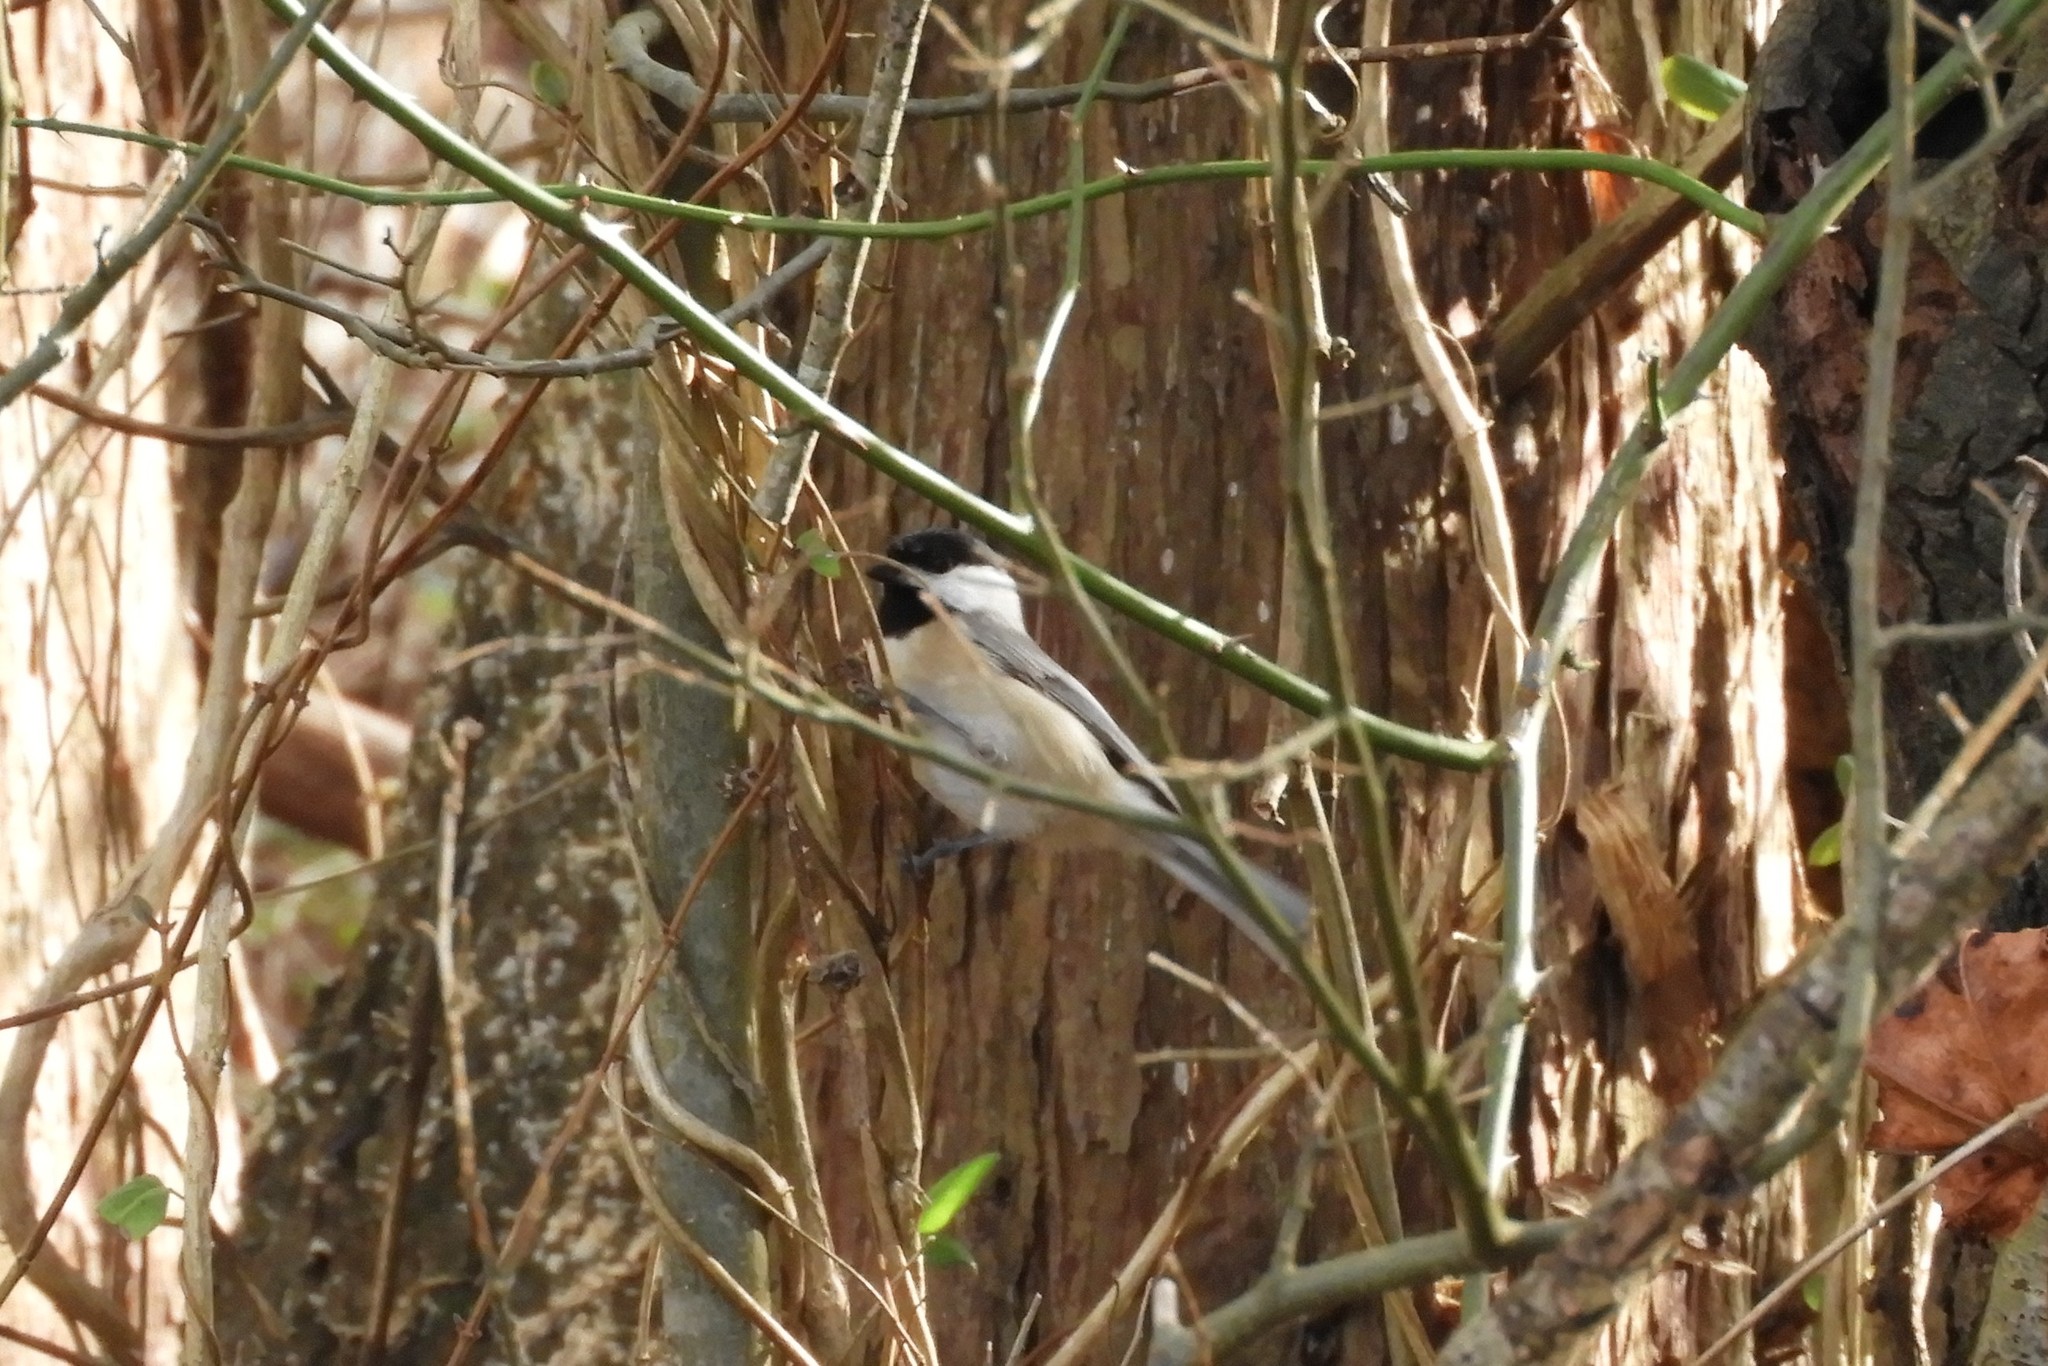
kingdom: Animalia
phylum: Chordata
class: Aves
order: Passeriformes
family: Paridae
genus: Poecile
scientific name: Poecile carolinensis
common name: Carolina chickadee
